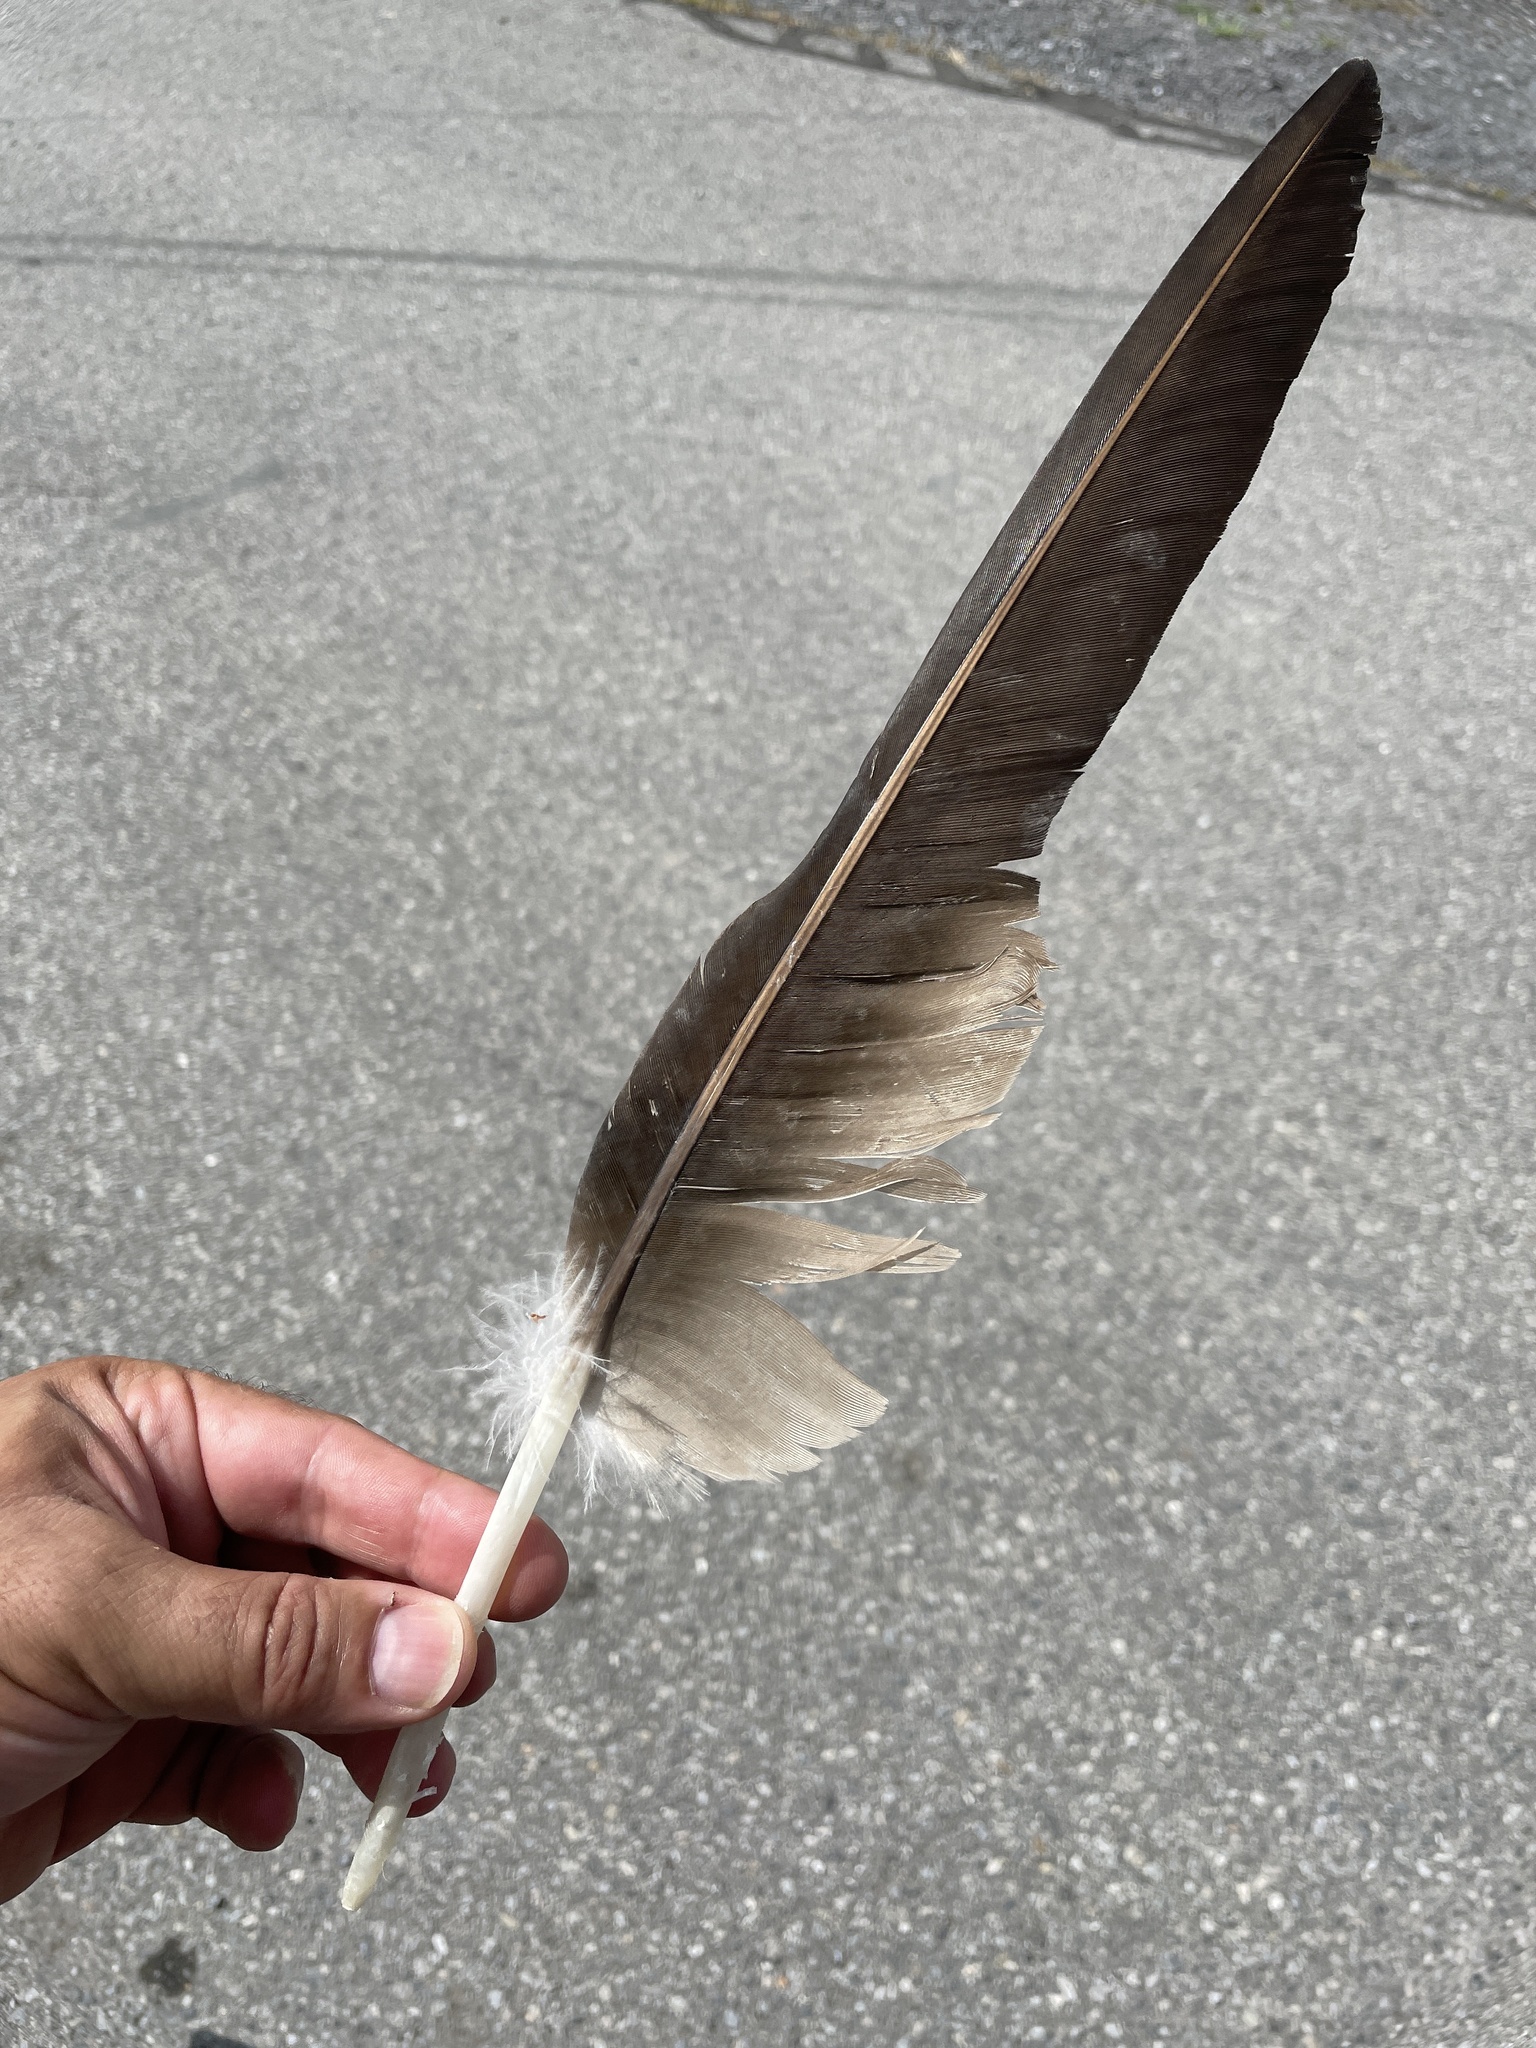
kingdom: Animalia
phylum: Chordata
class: Aves
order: Accipitriformes
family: Cathartidae
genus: Cathartes
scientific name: Cathartes aura
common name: Turkey vulture
